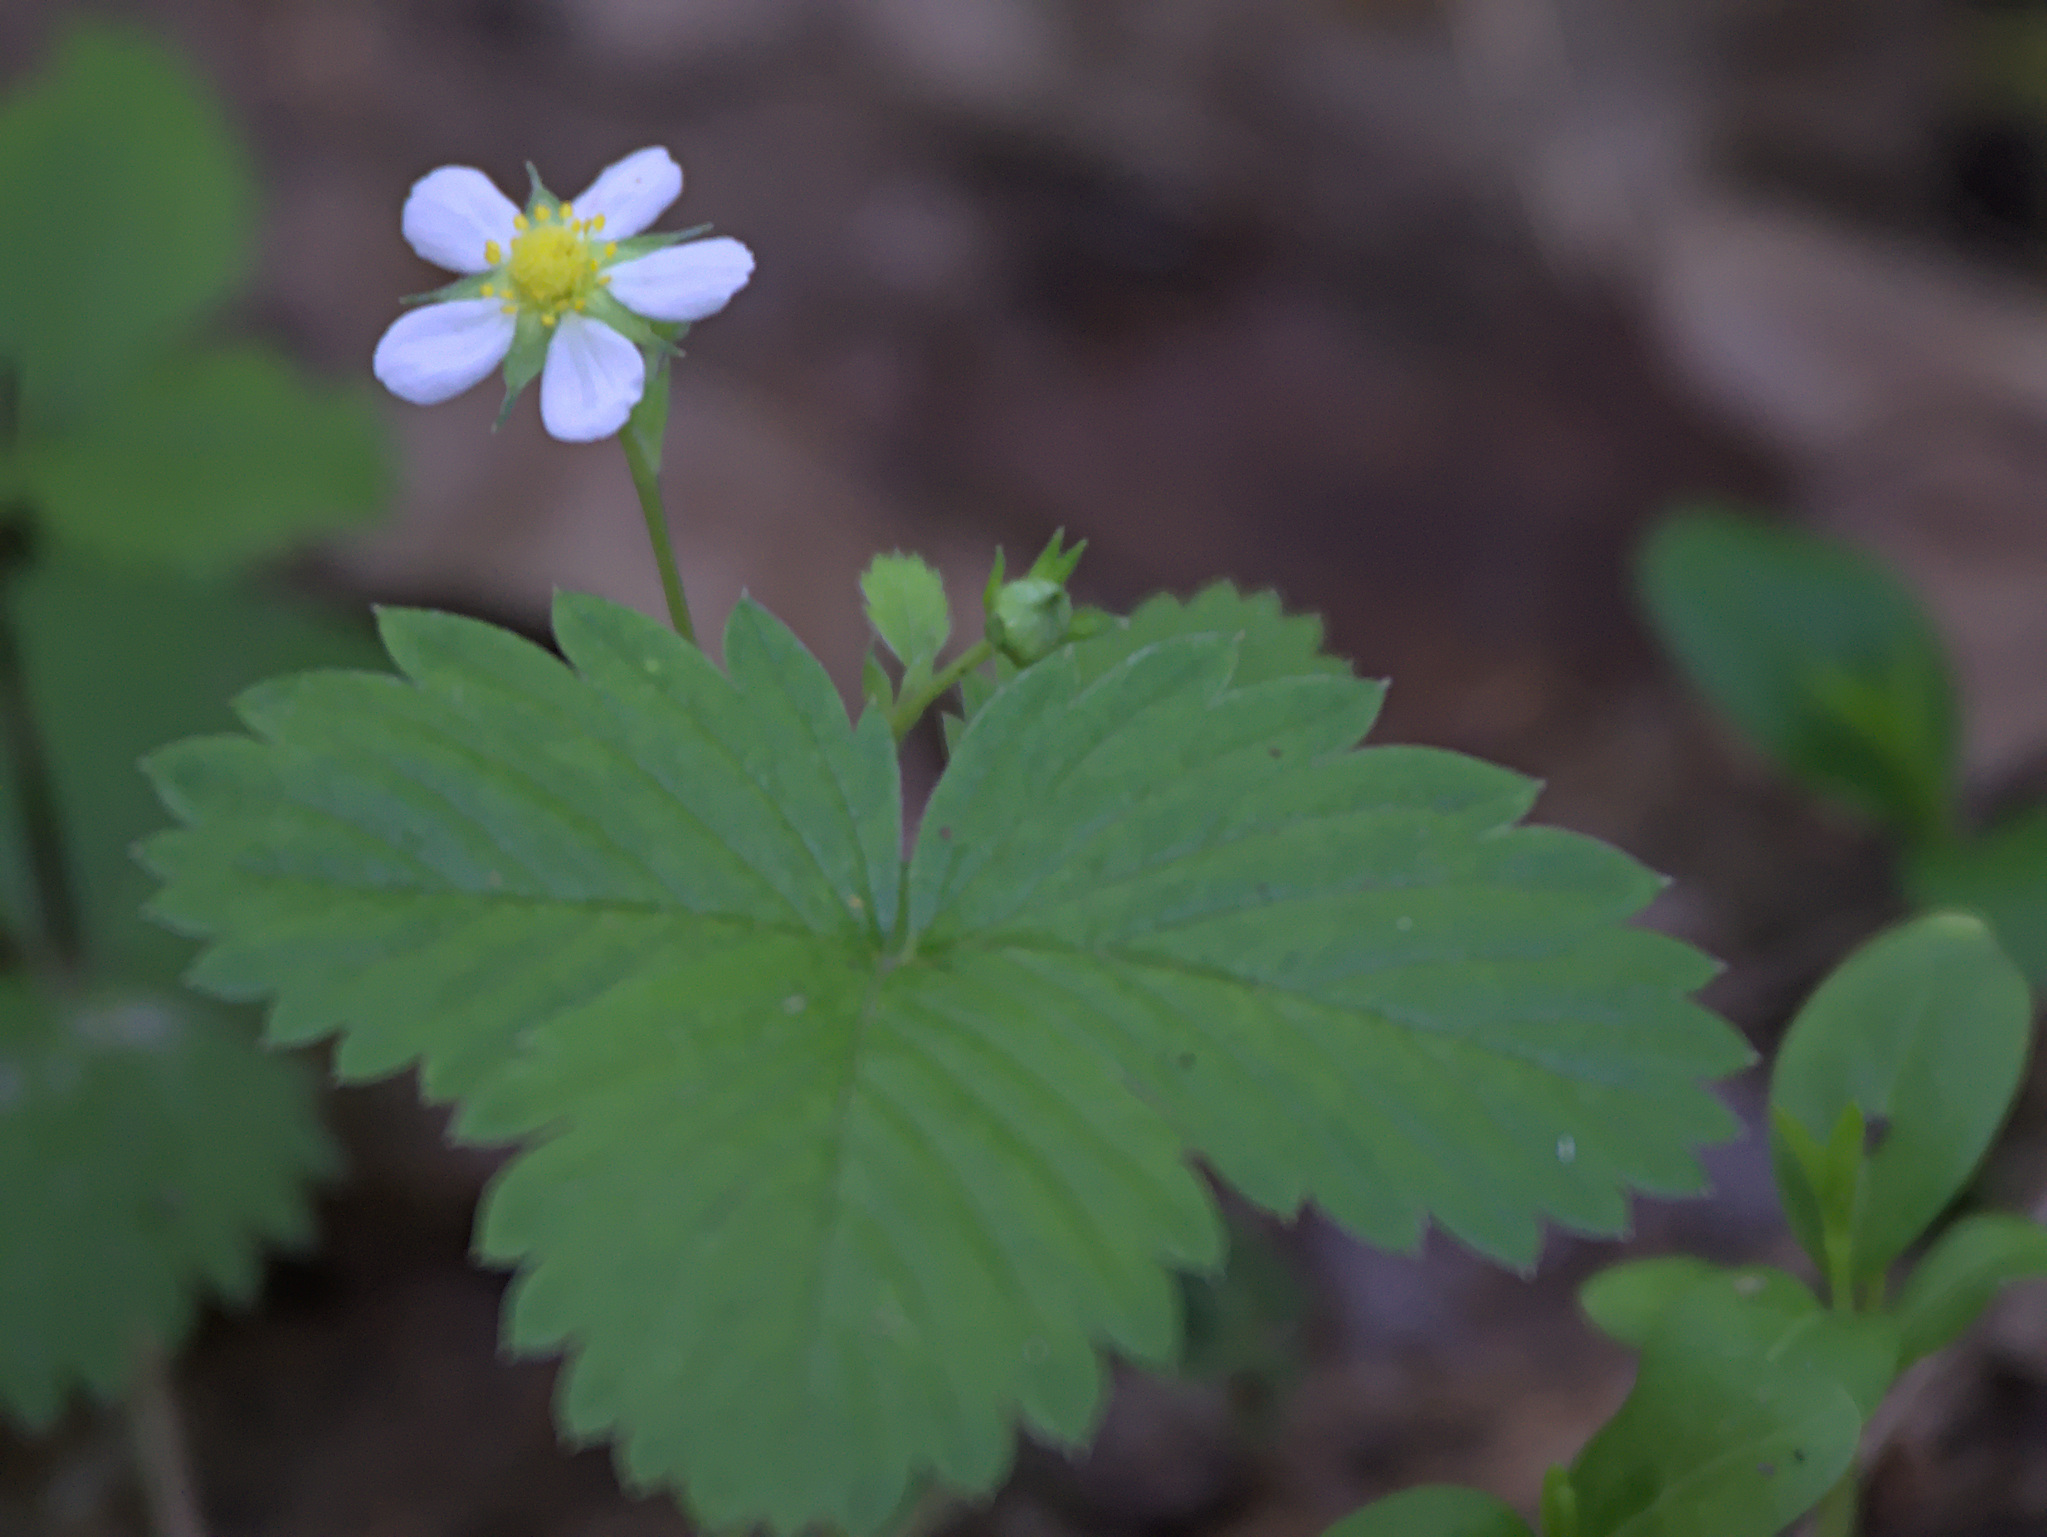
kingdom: Plantae
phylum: Tracheophyta
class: Magnoliopsida
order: Rosales
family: Rosaceae
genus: Fragaria
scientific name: Fragaria vesca
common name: Wild strawberry
